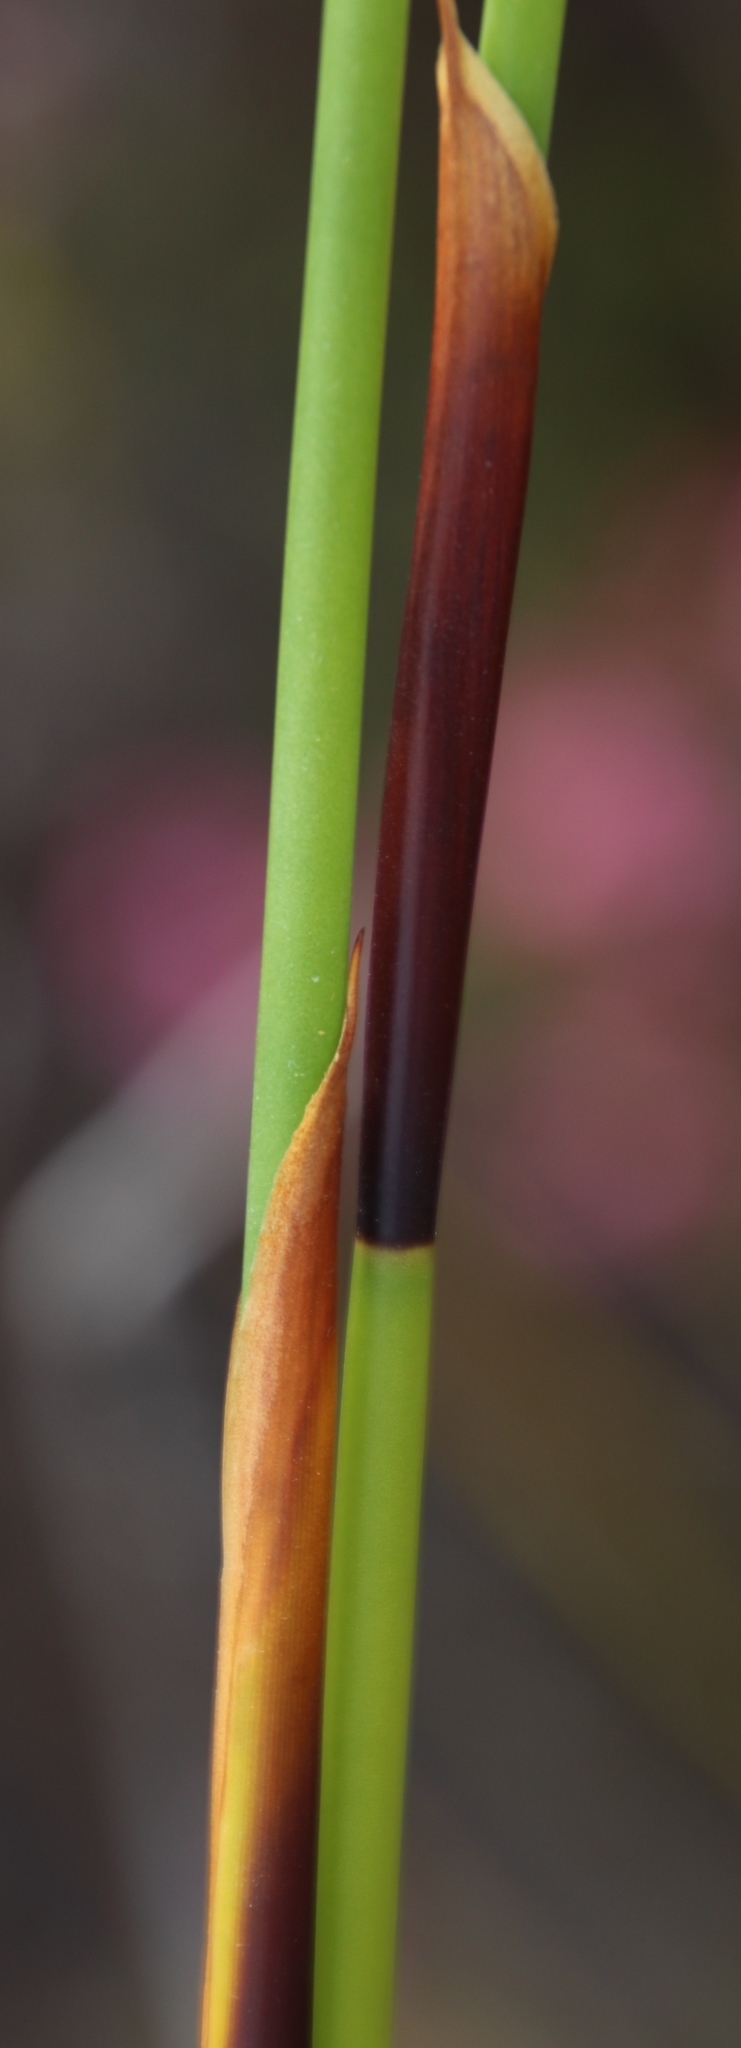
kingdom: Plantae
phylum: Tracheophyta
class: Liliopsida
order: Poales
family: Restionaceae
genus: Elegia
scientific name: Elegia cuspidata
